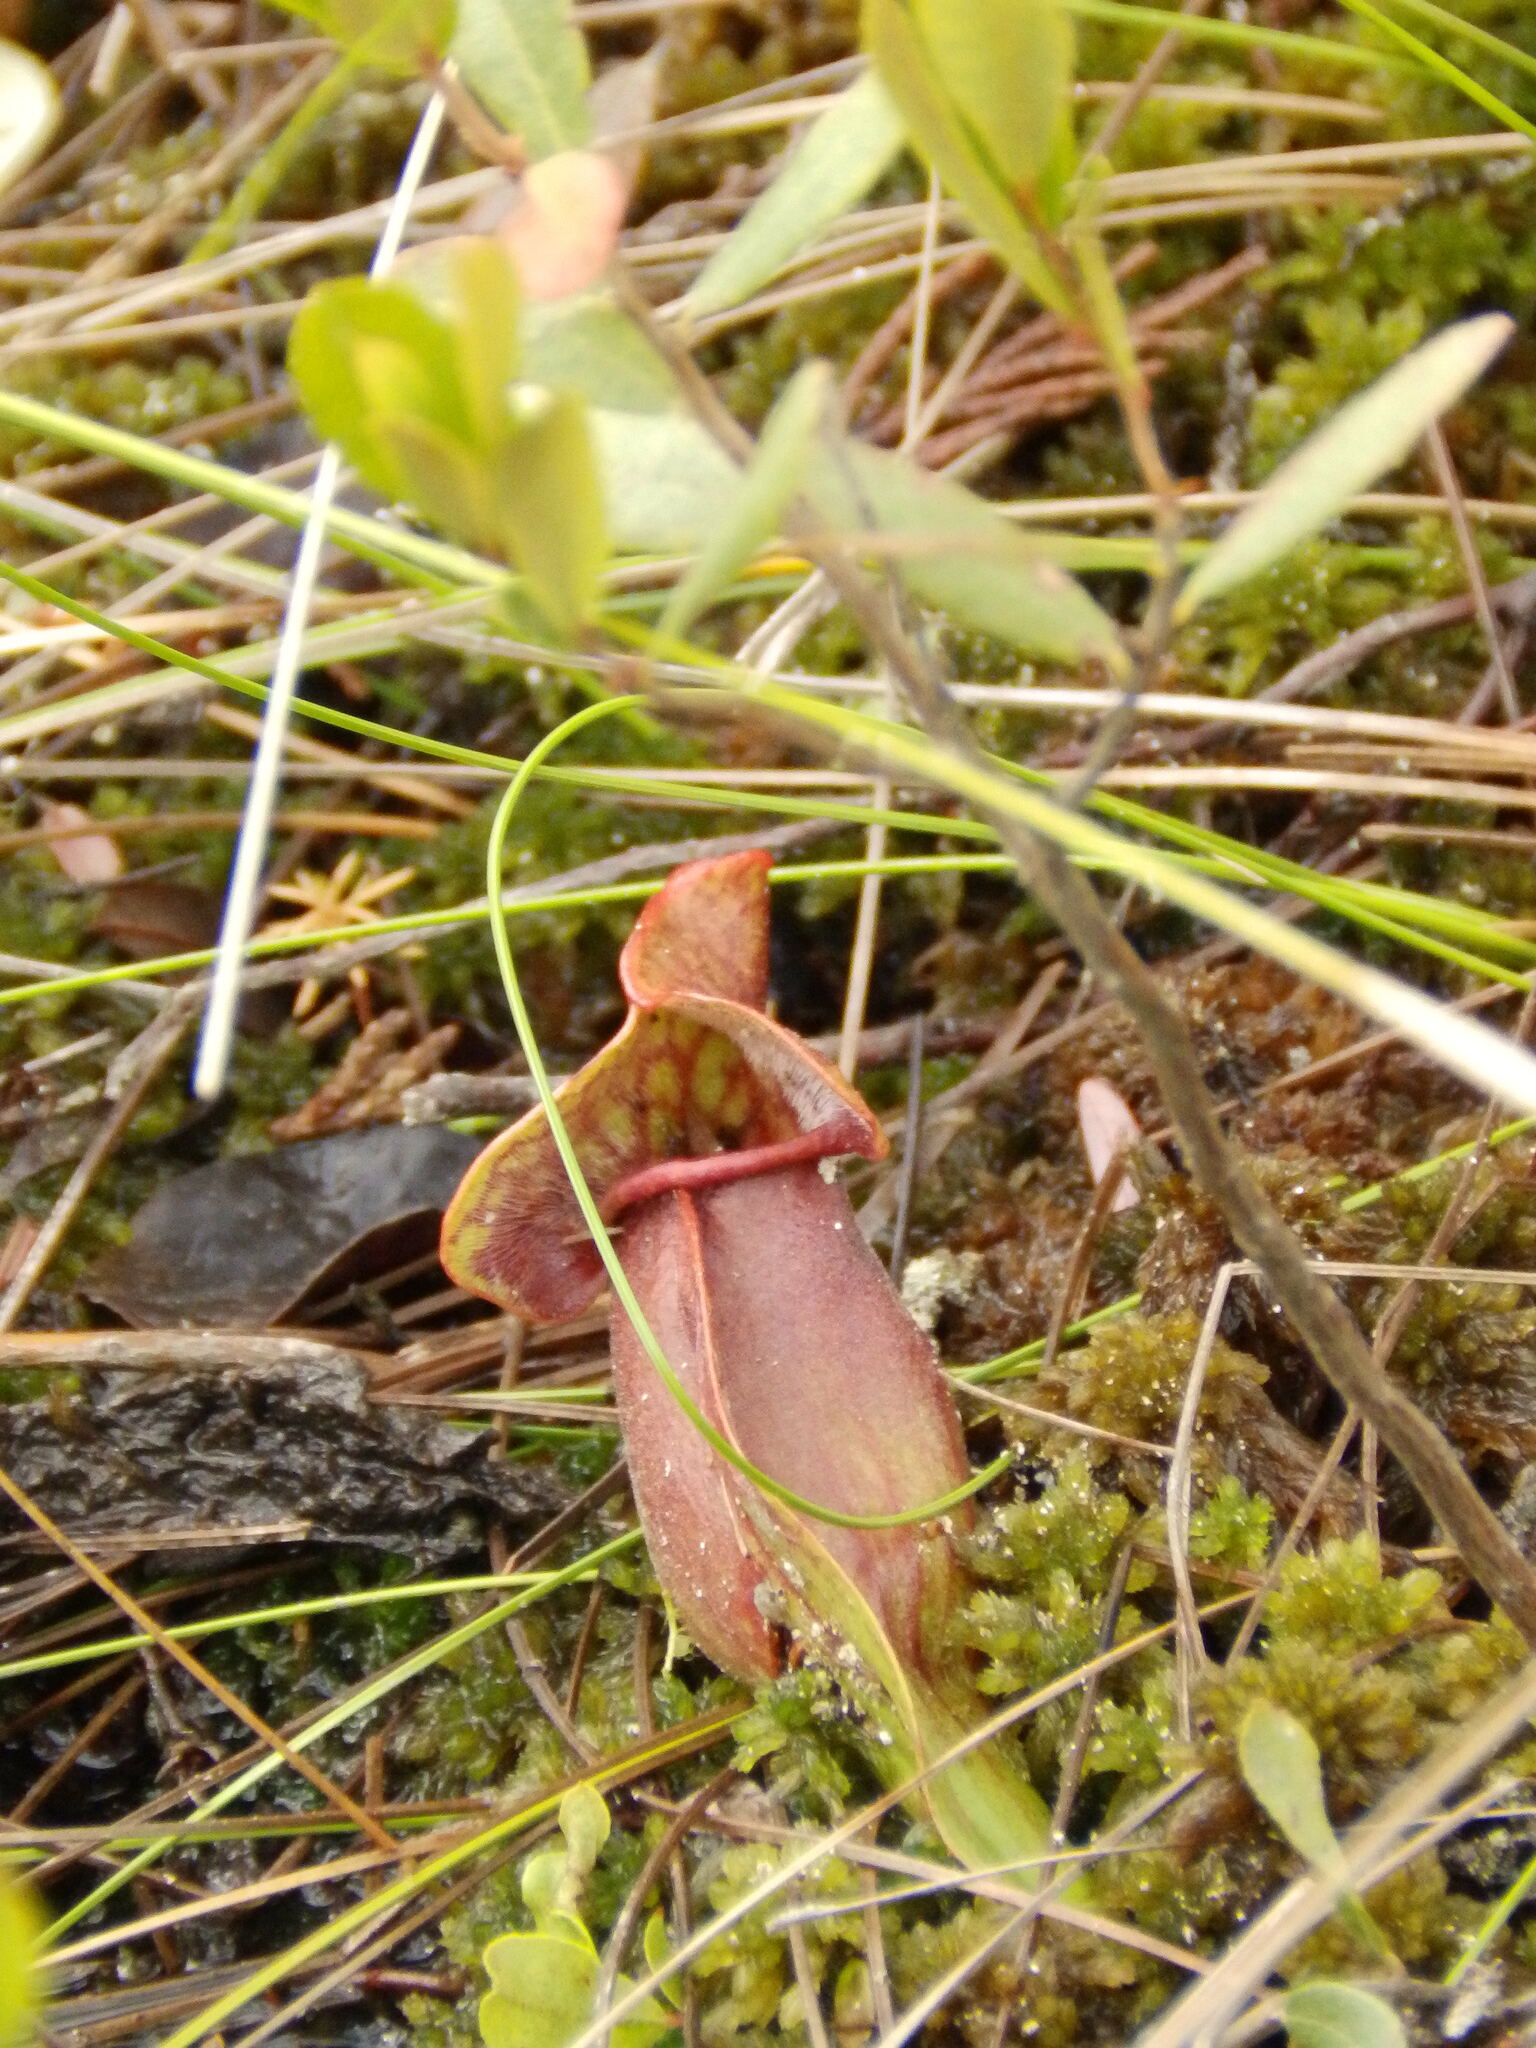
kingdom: Plantae
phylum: Tracheophyta
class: Magnoliopsida
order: Ericales
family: Sarraceniaceae
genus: Sarracenia
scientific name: Sarracenia purpurea
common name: Pitcherplant
